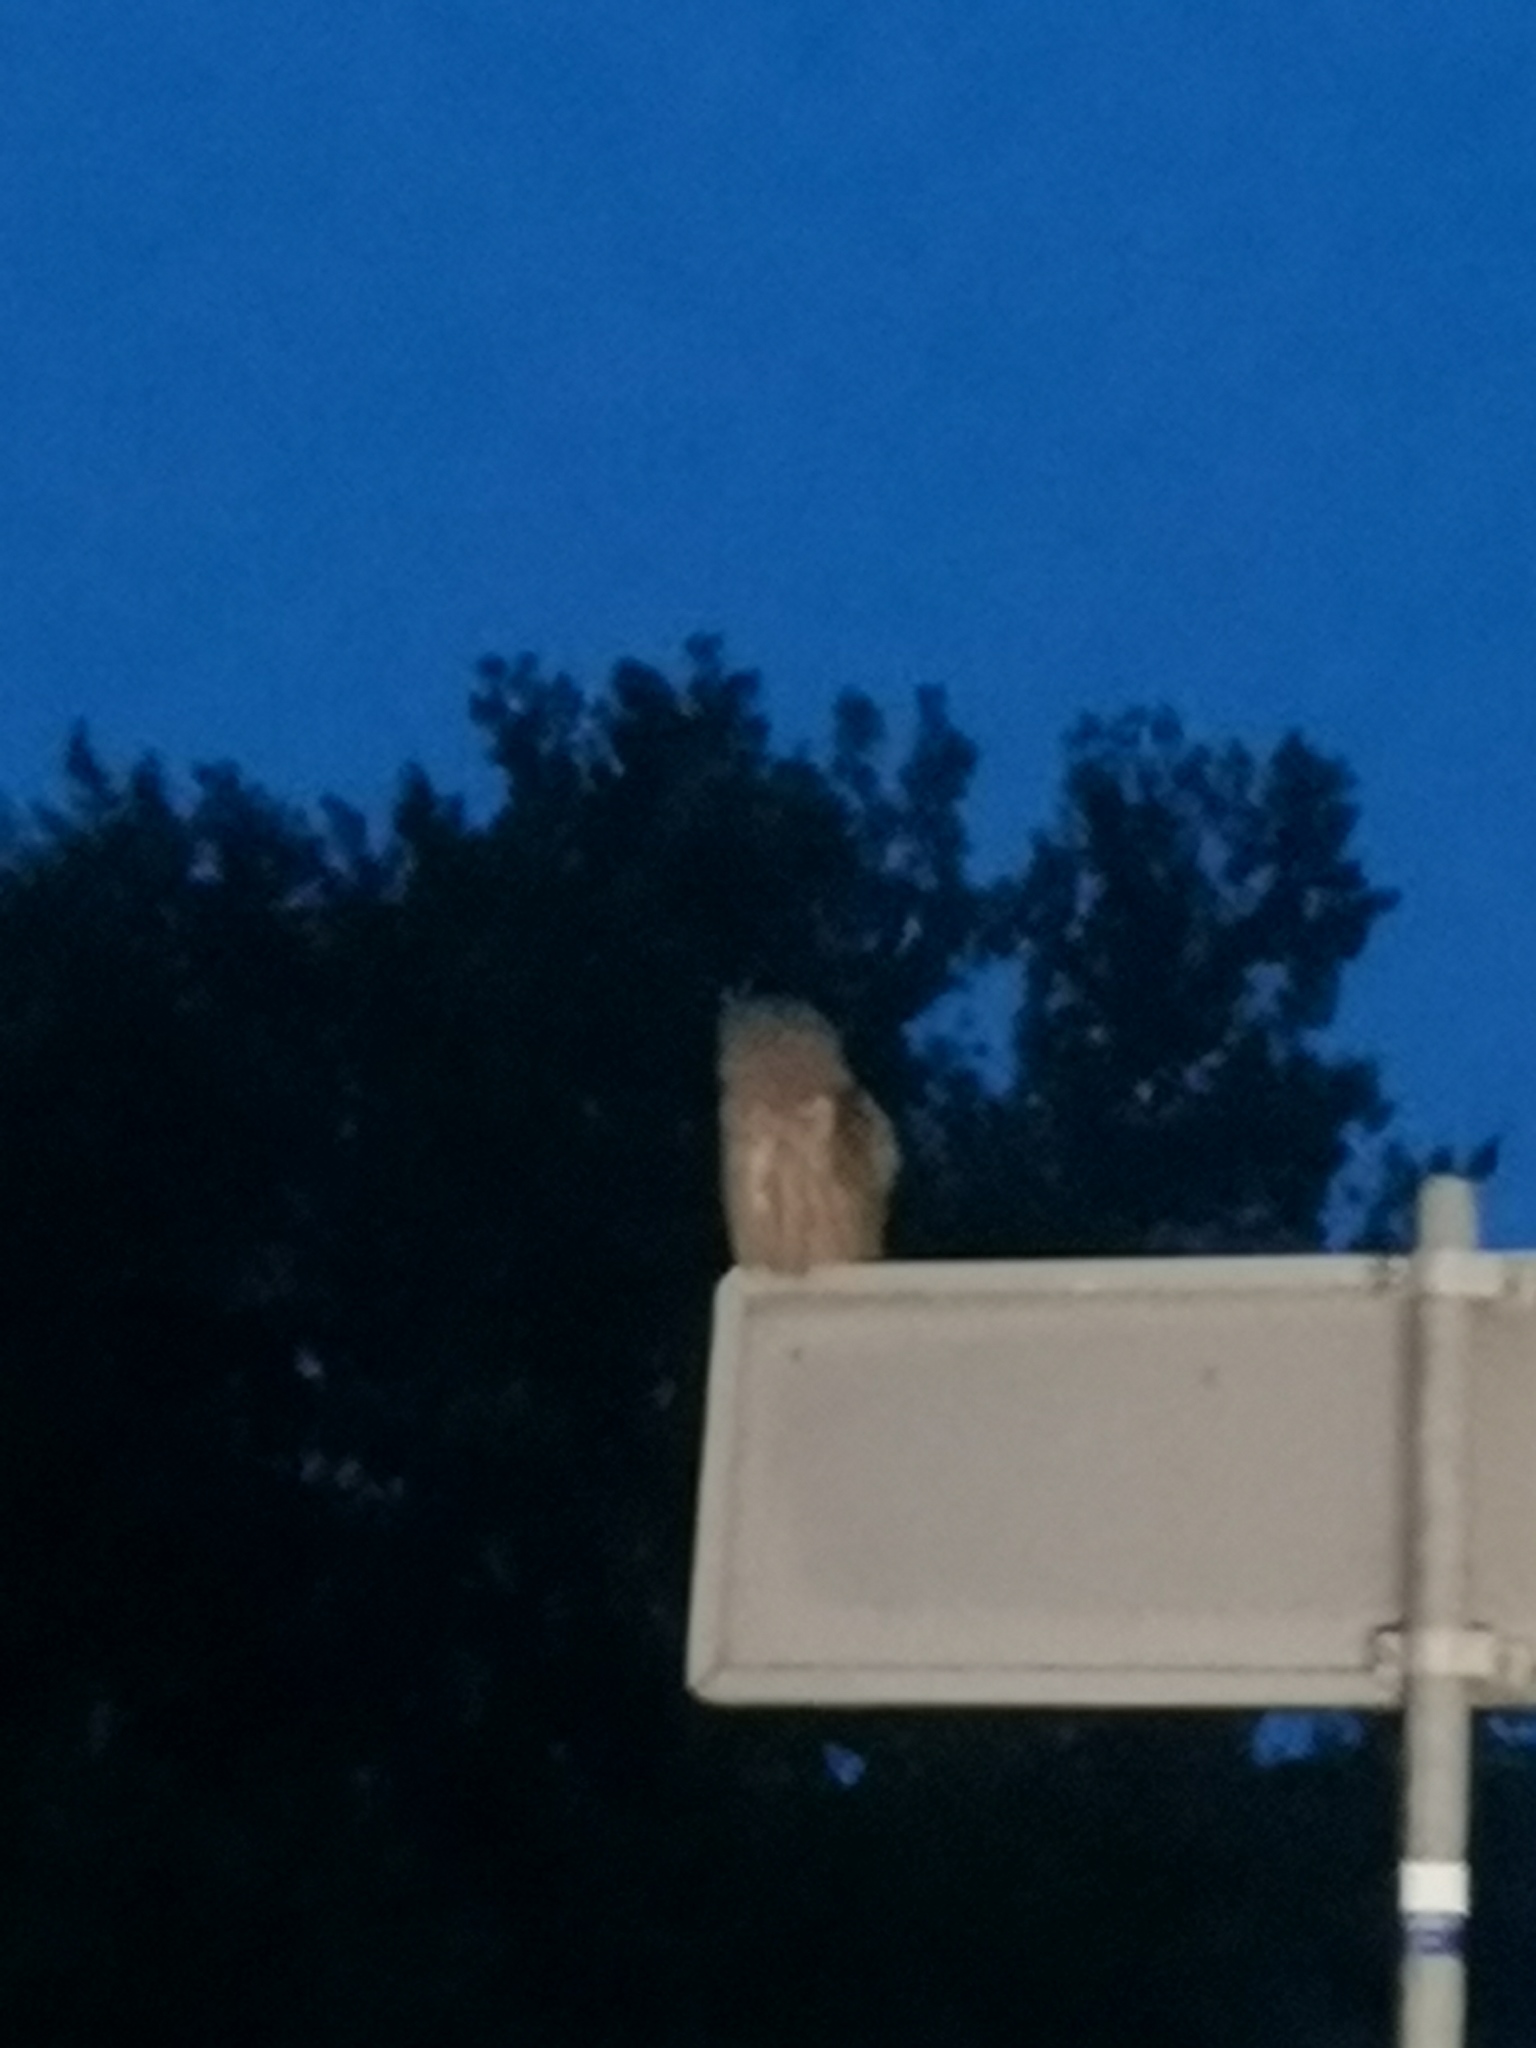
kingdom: Animalia
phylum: Chordata
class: Aves
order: Strigiformes
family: Strigidae
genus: Asio
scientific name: Asio otus
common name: Long-eared owl
